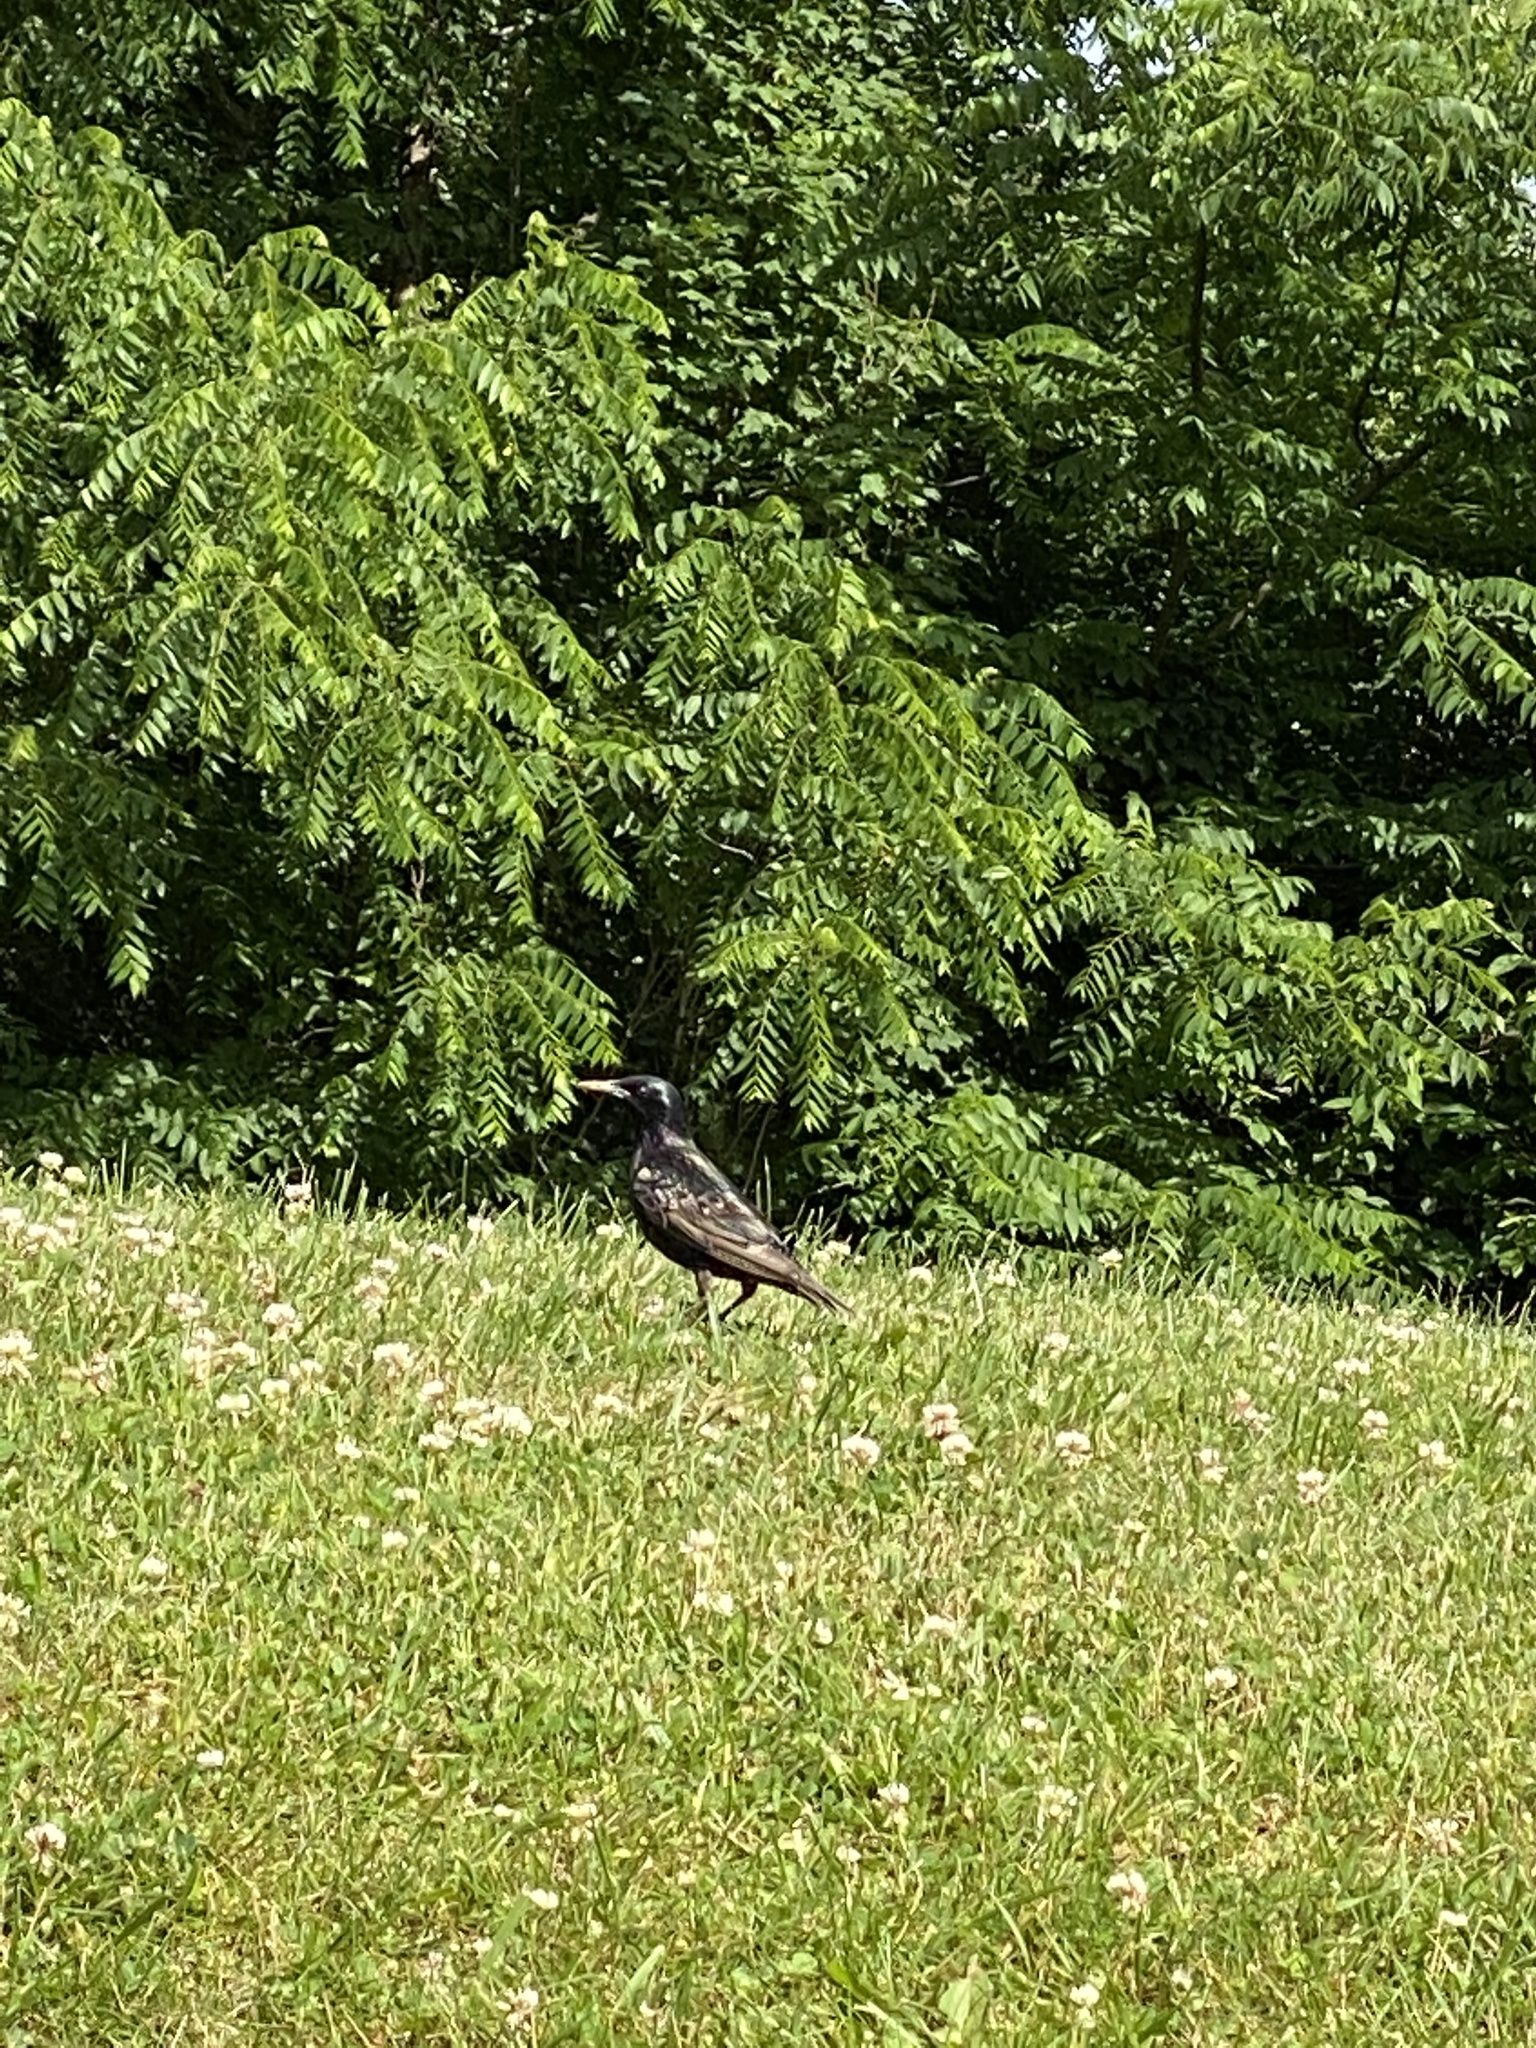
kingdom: Animalia
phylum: Chordata
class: Aves
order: Passeriformes
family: Sturnidae
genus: Sturnus
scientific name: Sturnus vulgaris
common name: Common starling
